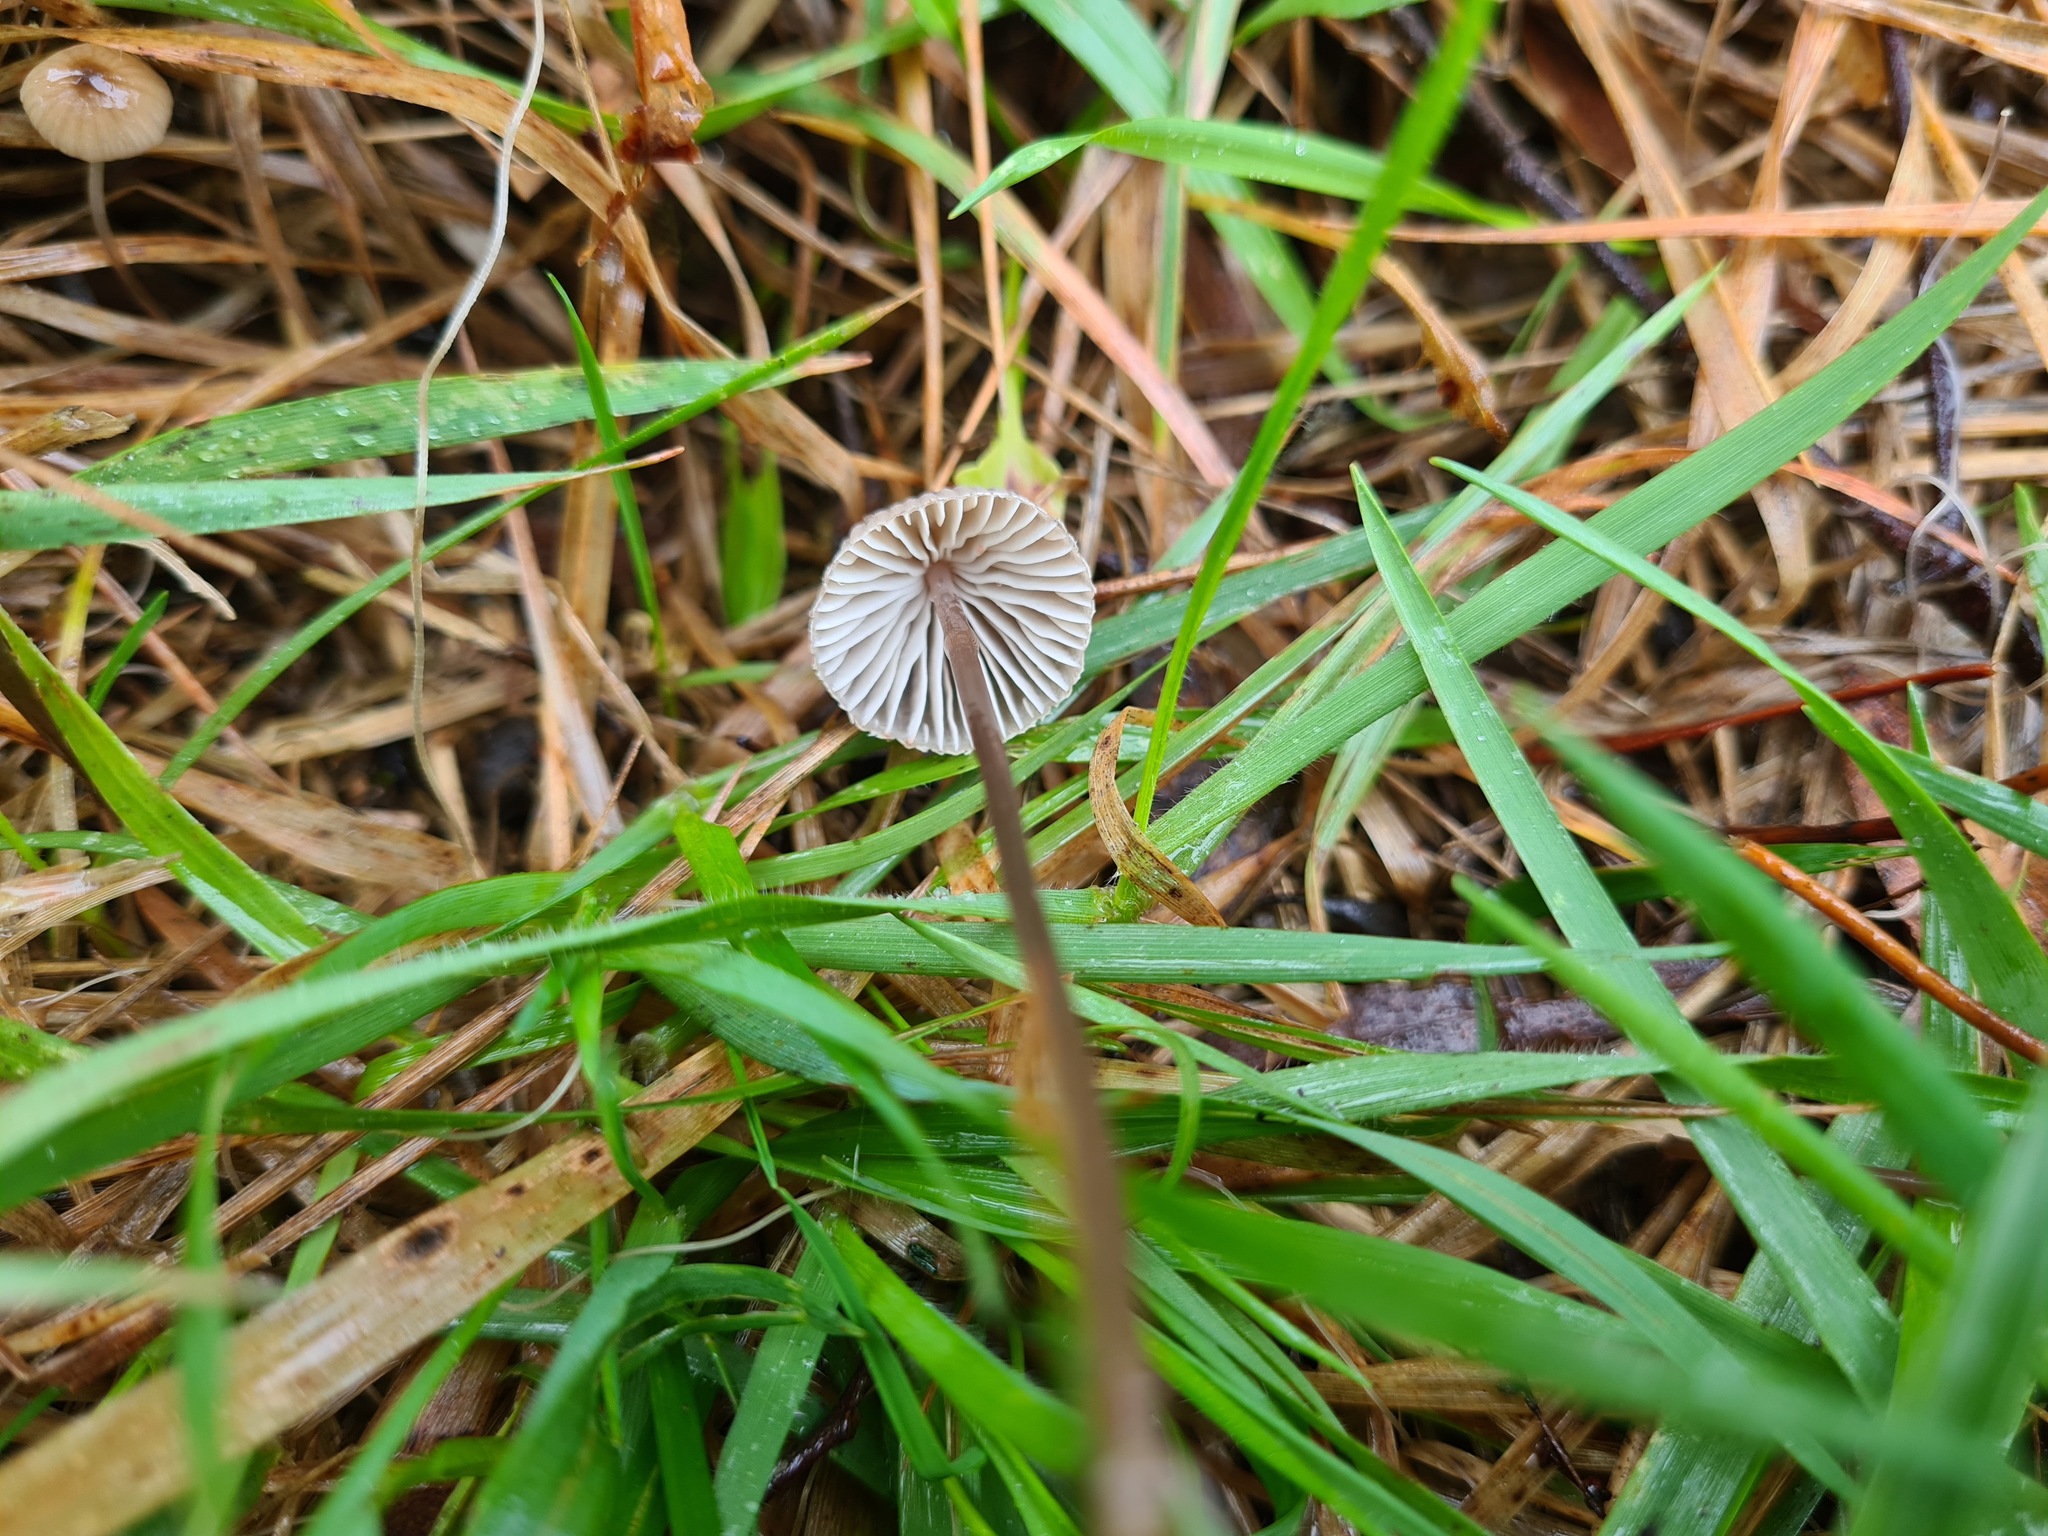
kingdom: Fungi
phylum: Basidiomycota
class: Agaricomycetes
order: Agaricales
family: Mycenaceae
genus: Mycena
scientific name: Mycena cystidiosa
